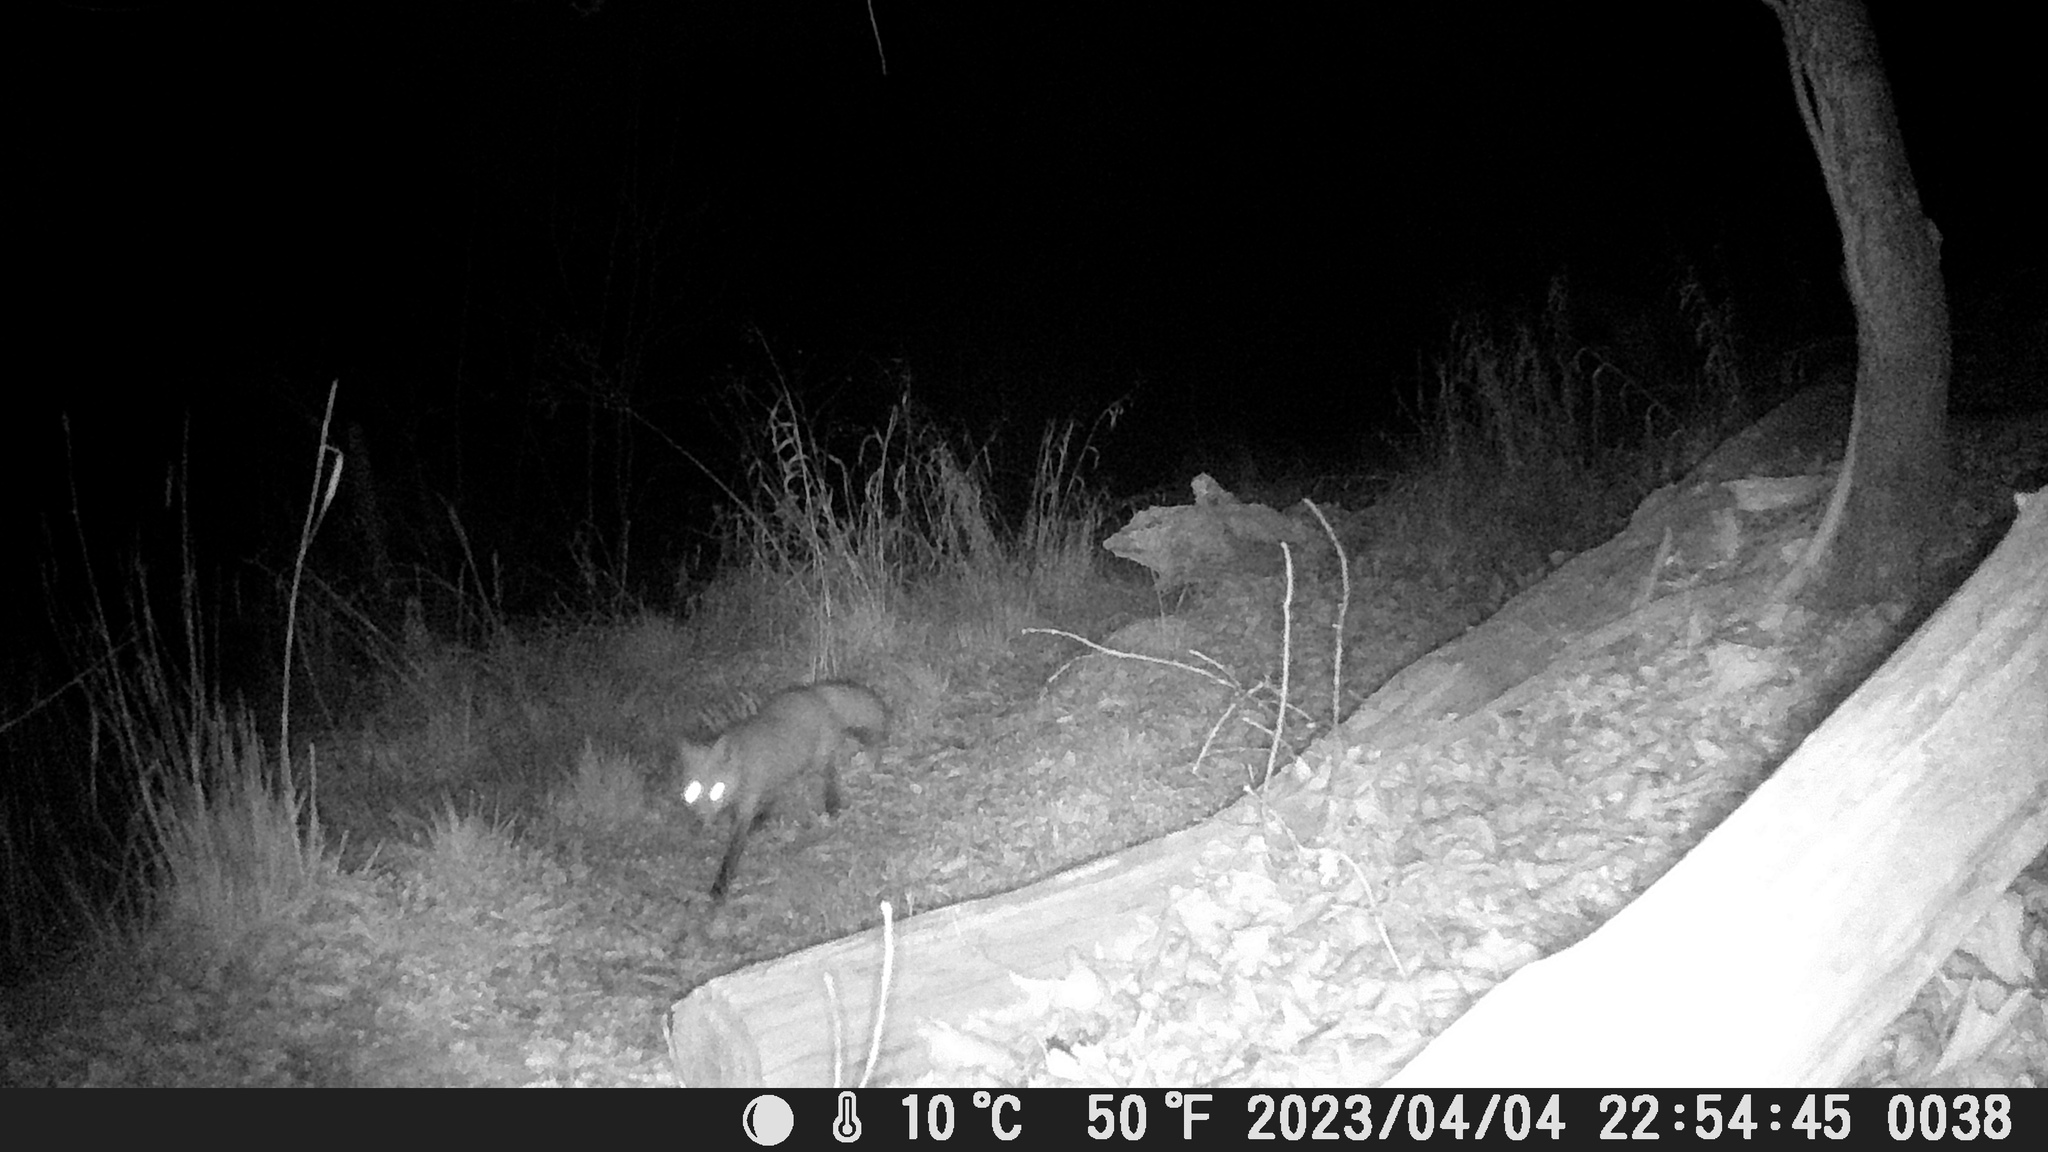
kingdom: Animalia
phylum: Chordata
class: Mammalia
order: Carnivora
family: Canidae
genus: Vulpes
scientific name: Vulpes vulpes
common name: Red fox
